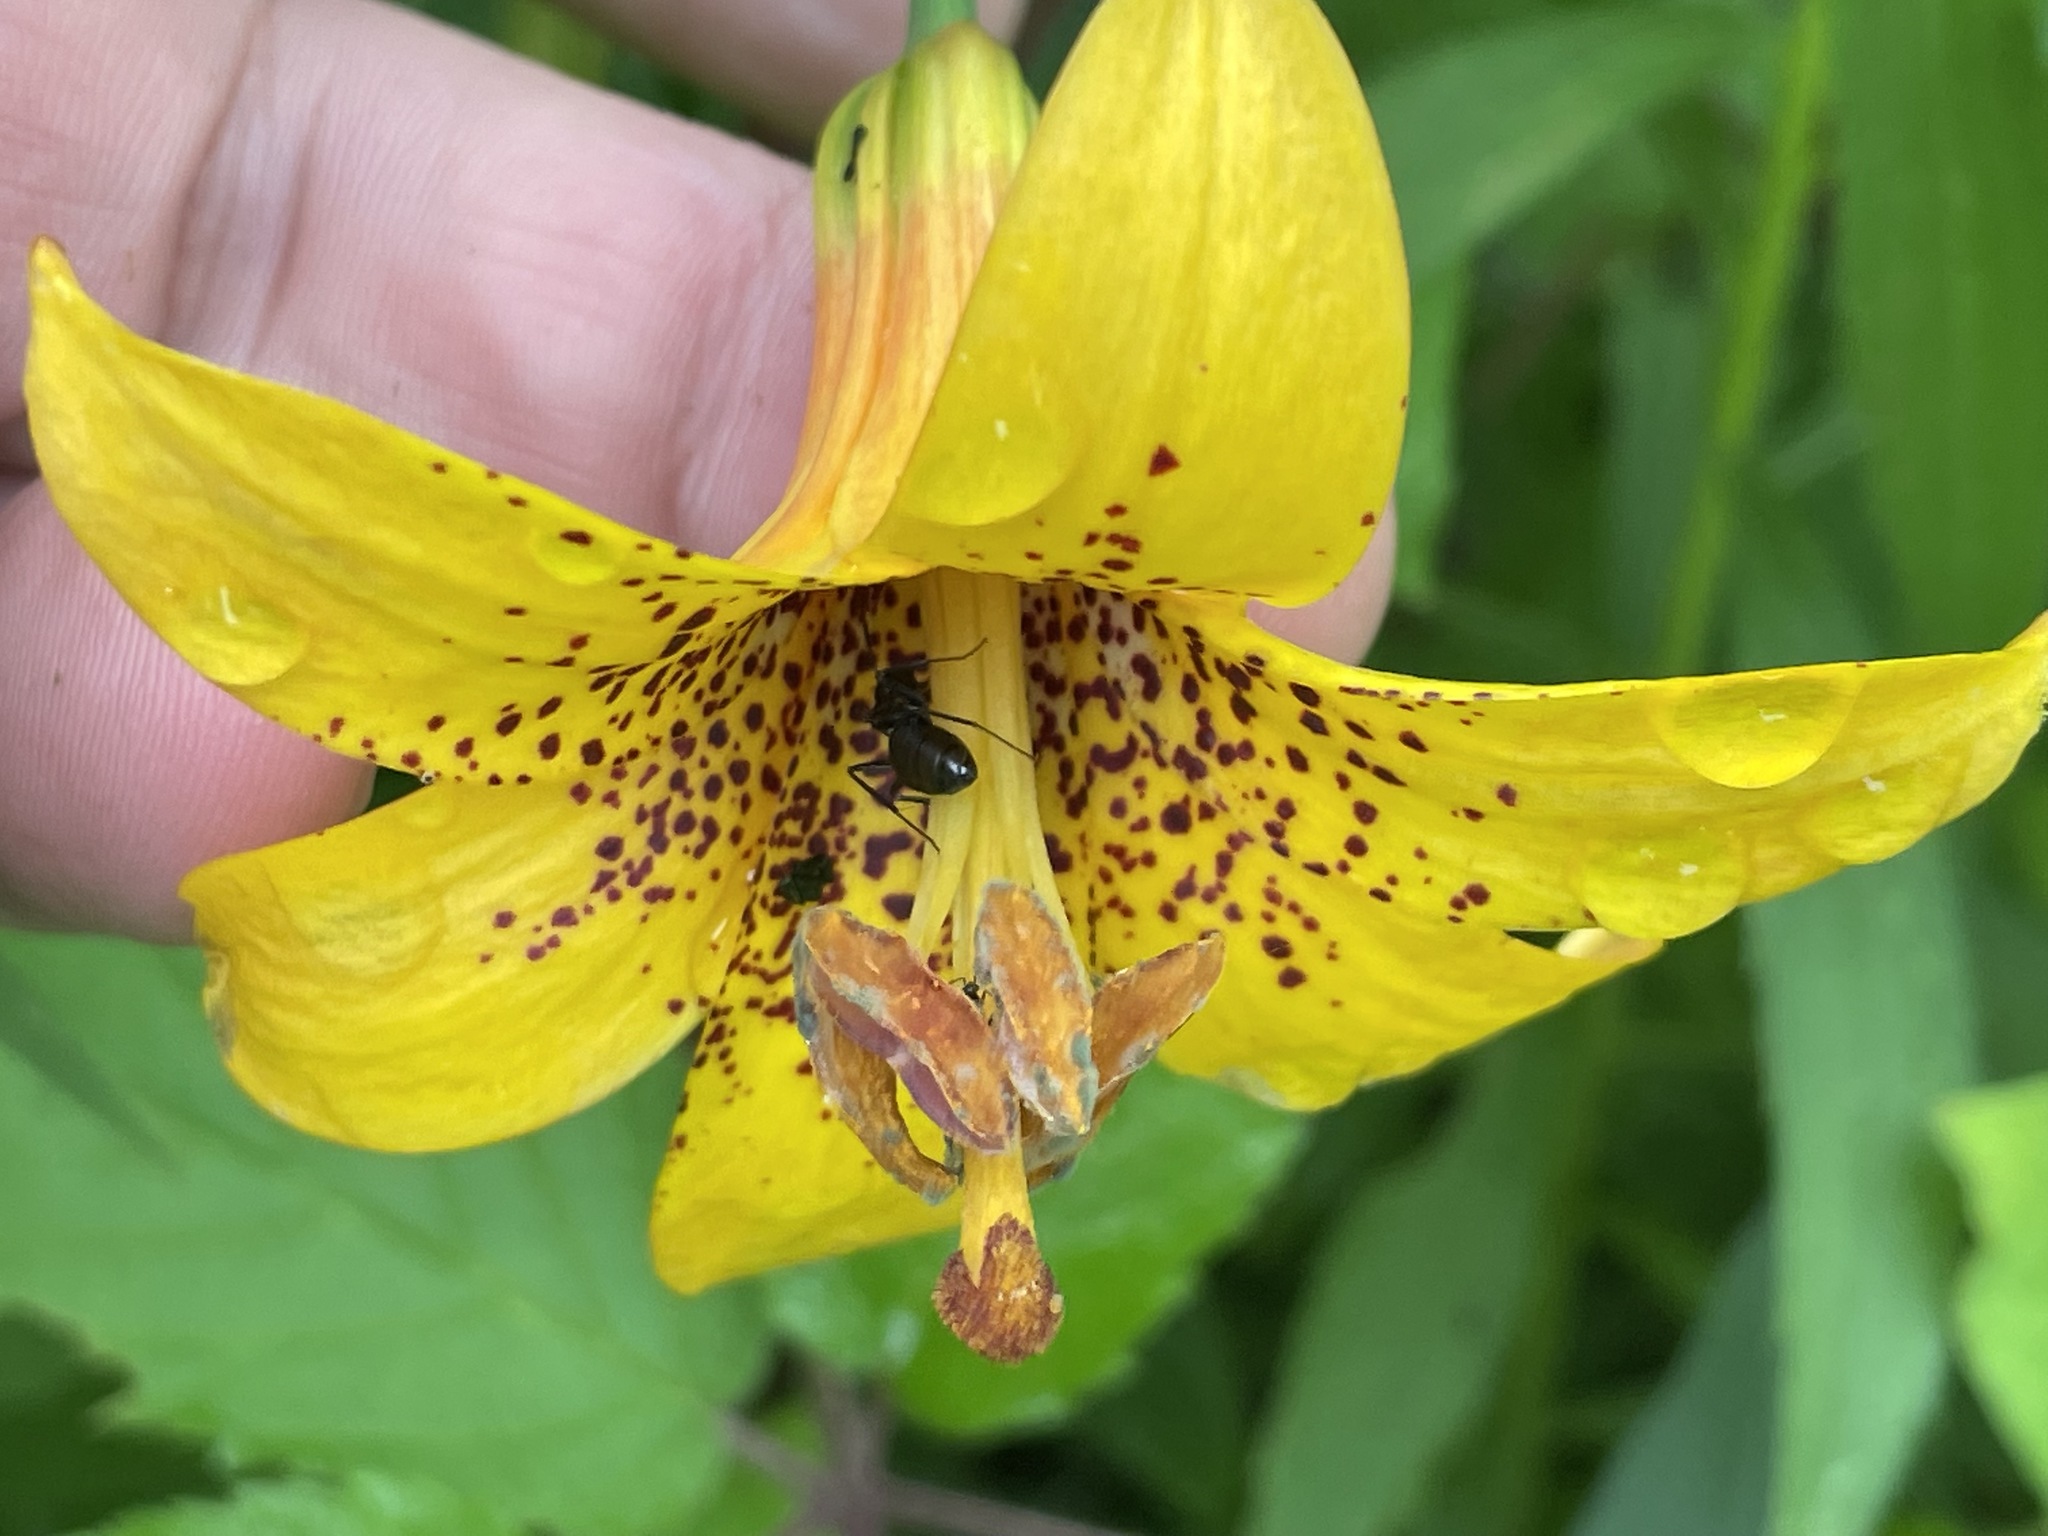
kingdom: Plantae
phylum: Tracheophyta
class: Liliopsida
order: Liliales
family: Liliaceae
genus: Lilium
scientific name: Lilium canadense
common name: Canada lily
